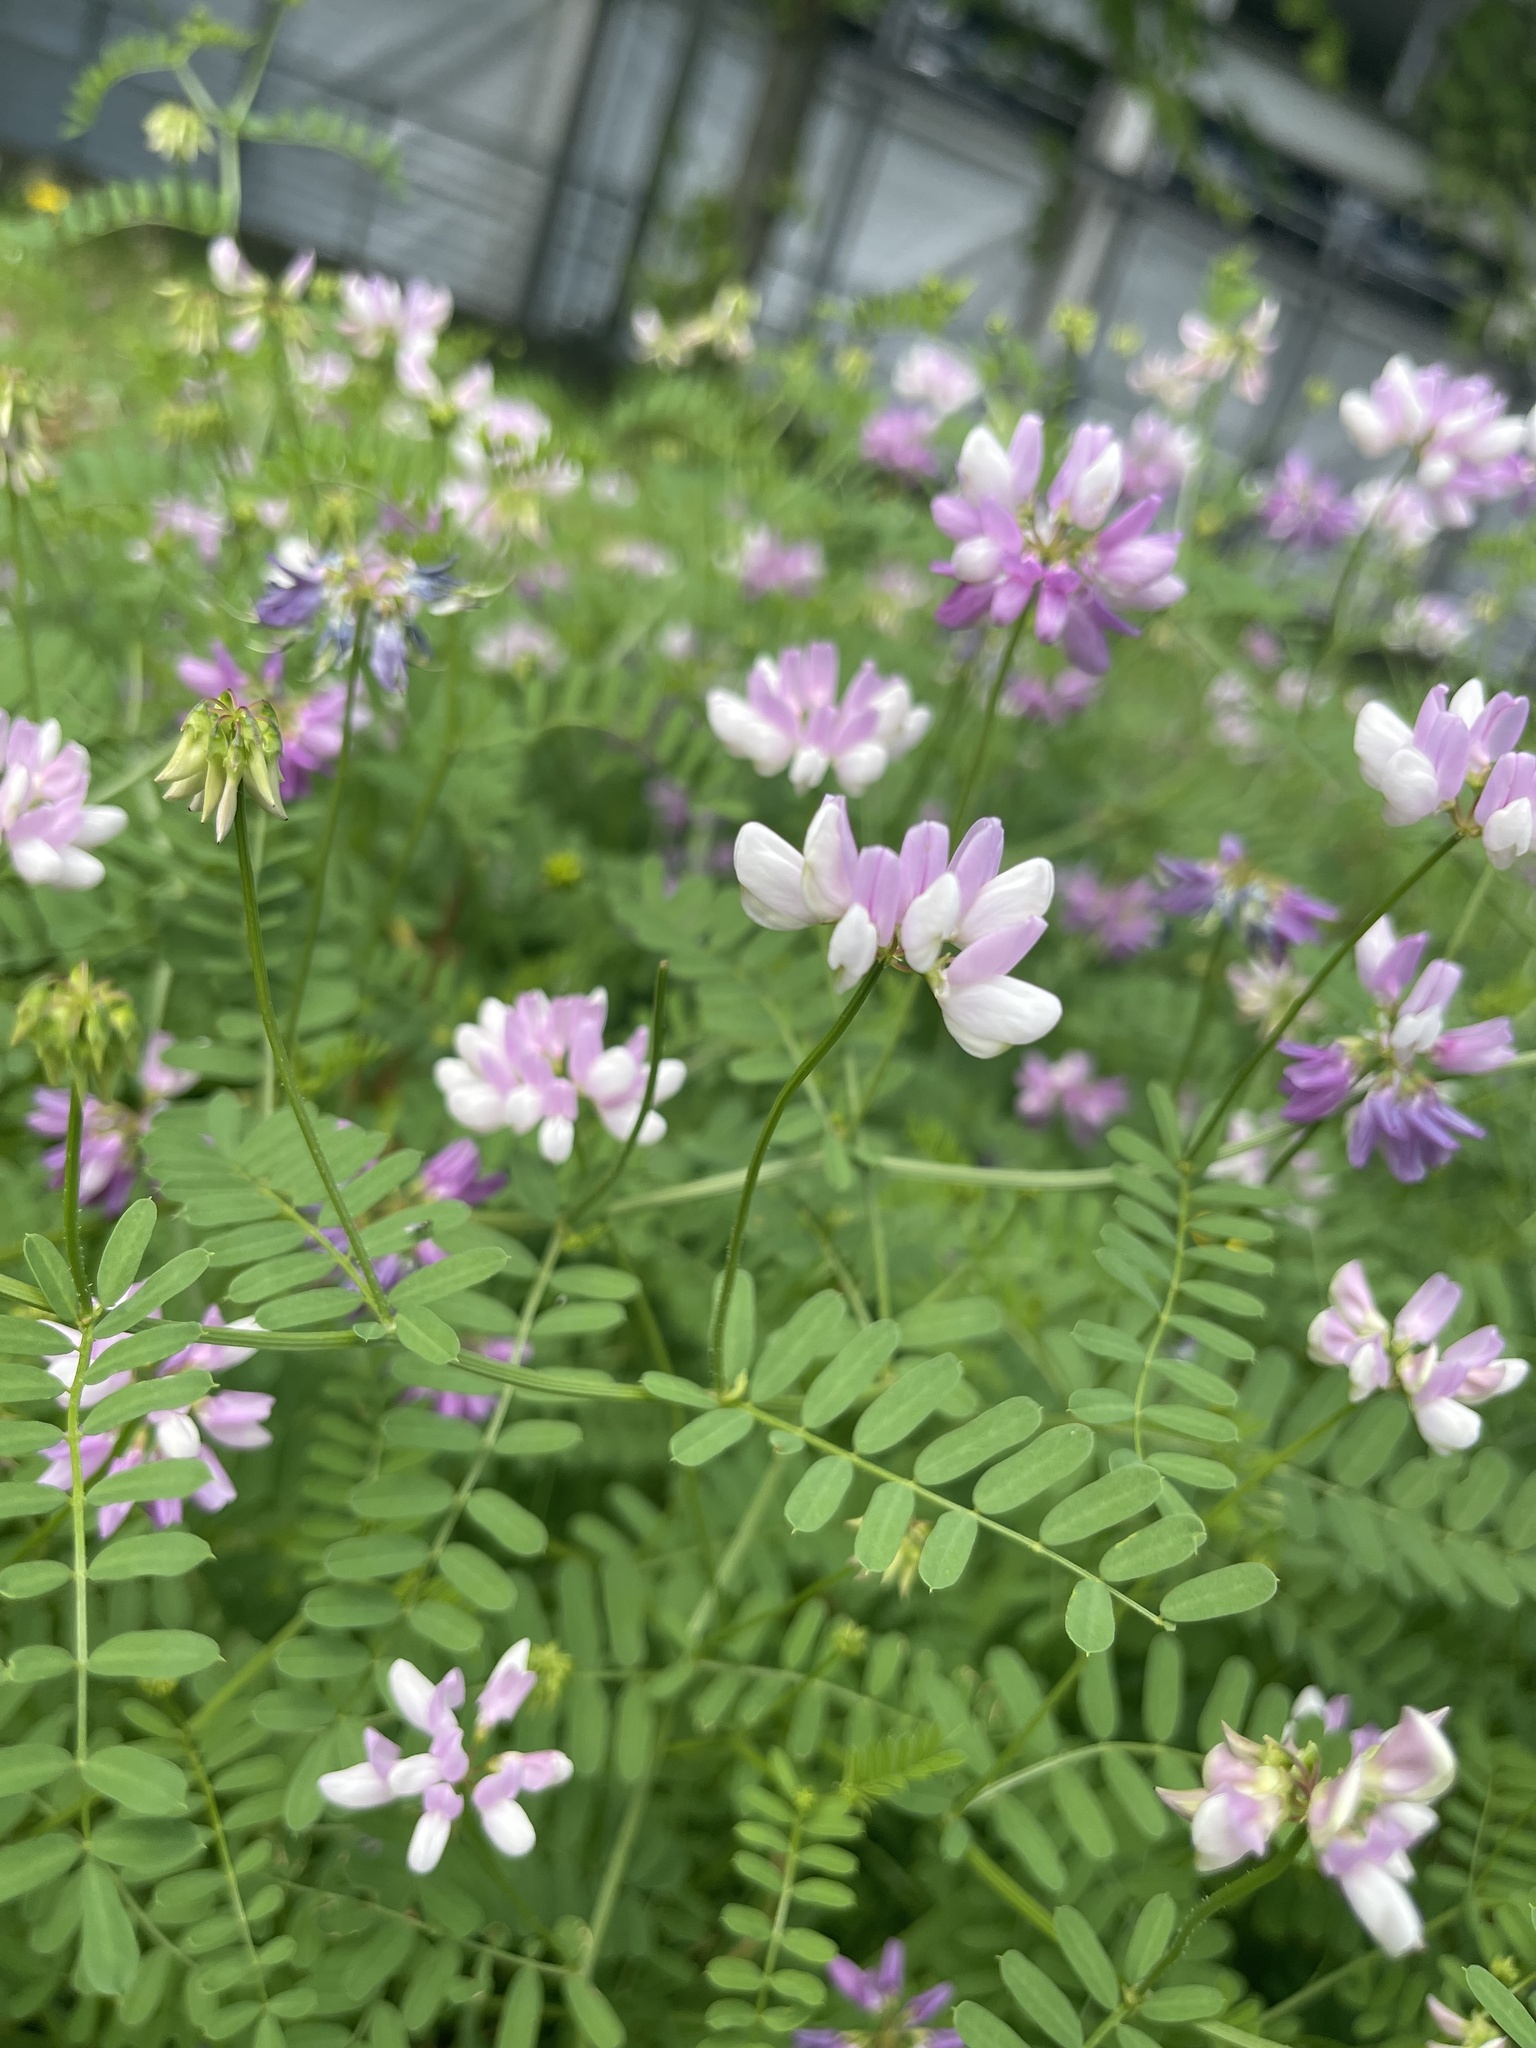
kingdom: Plantae
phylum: Tracheophyta
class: Magnoliopsida
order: Fabales
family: Fabaceae
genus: Coronilla
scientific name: Coronilla varia
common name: Crownvetch
